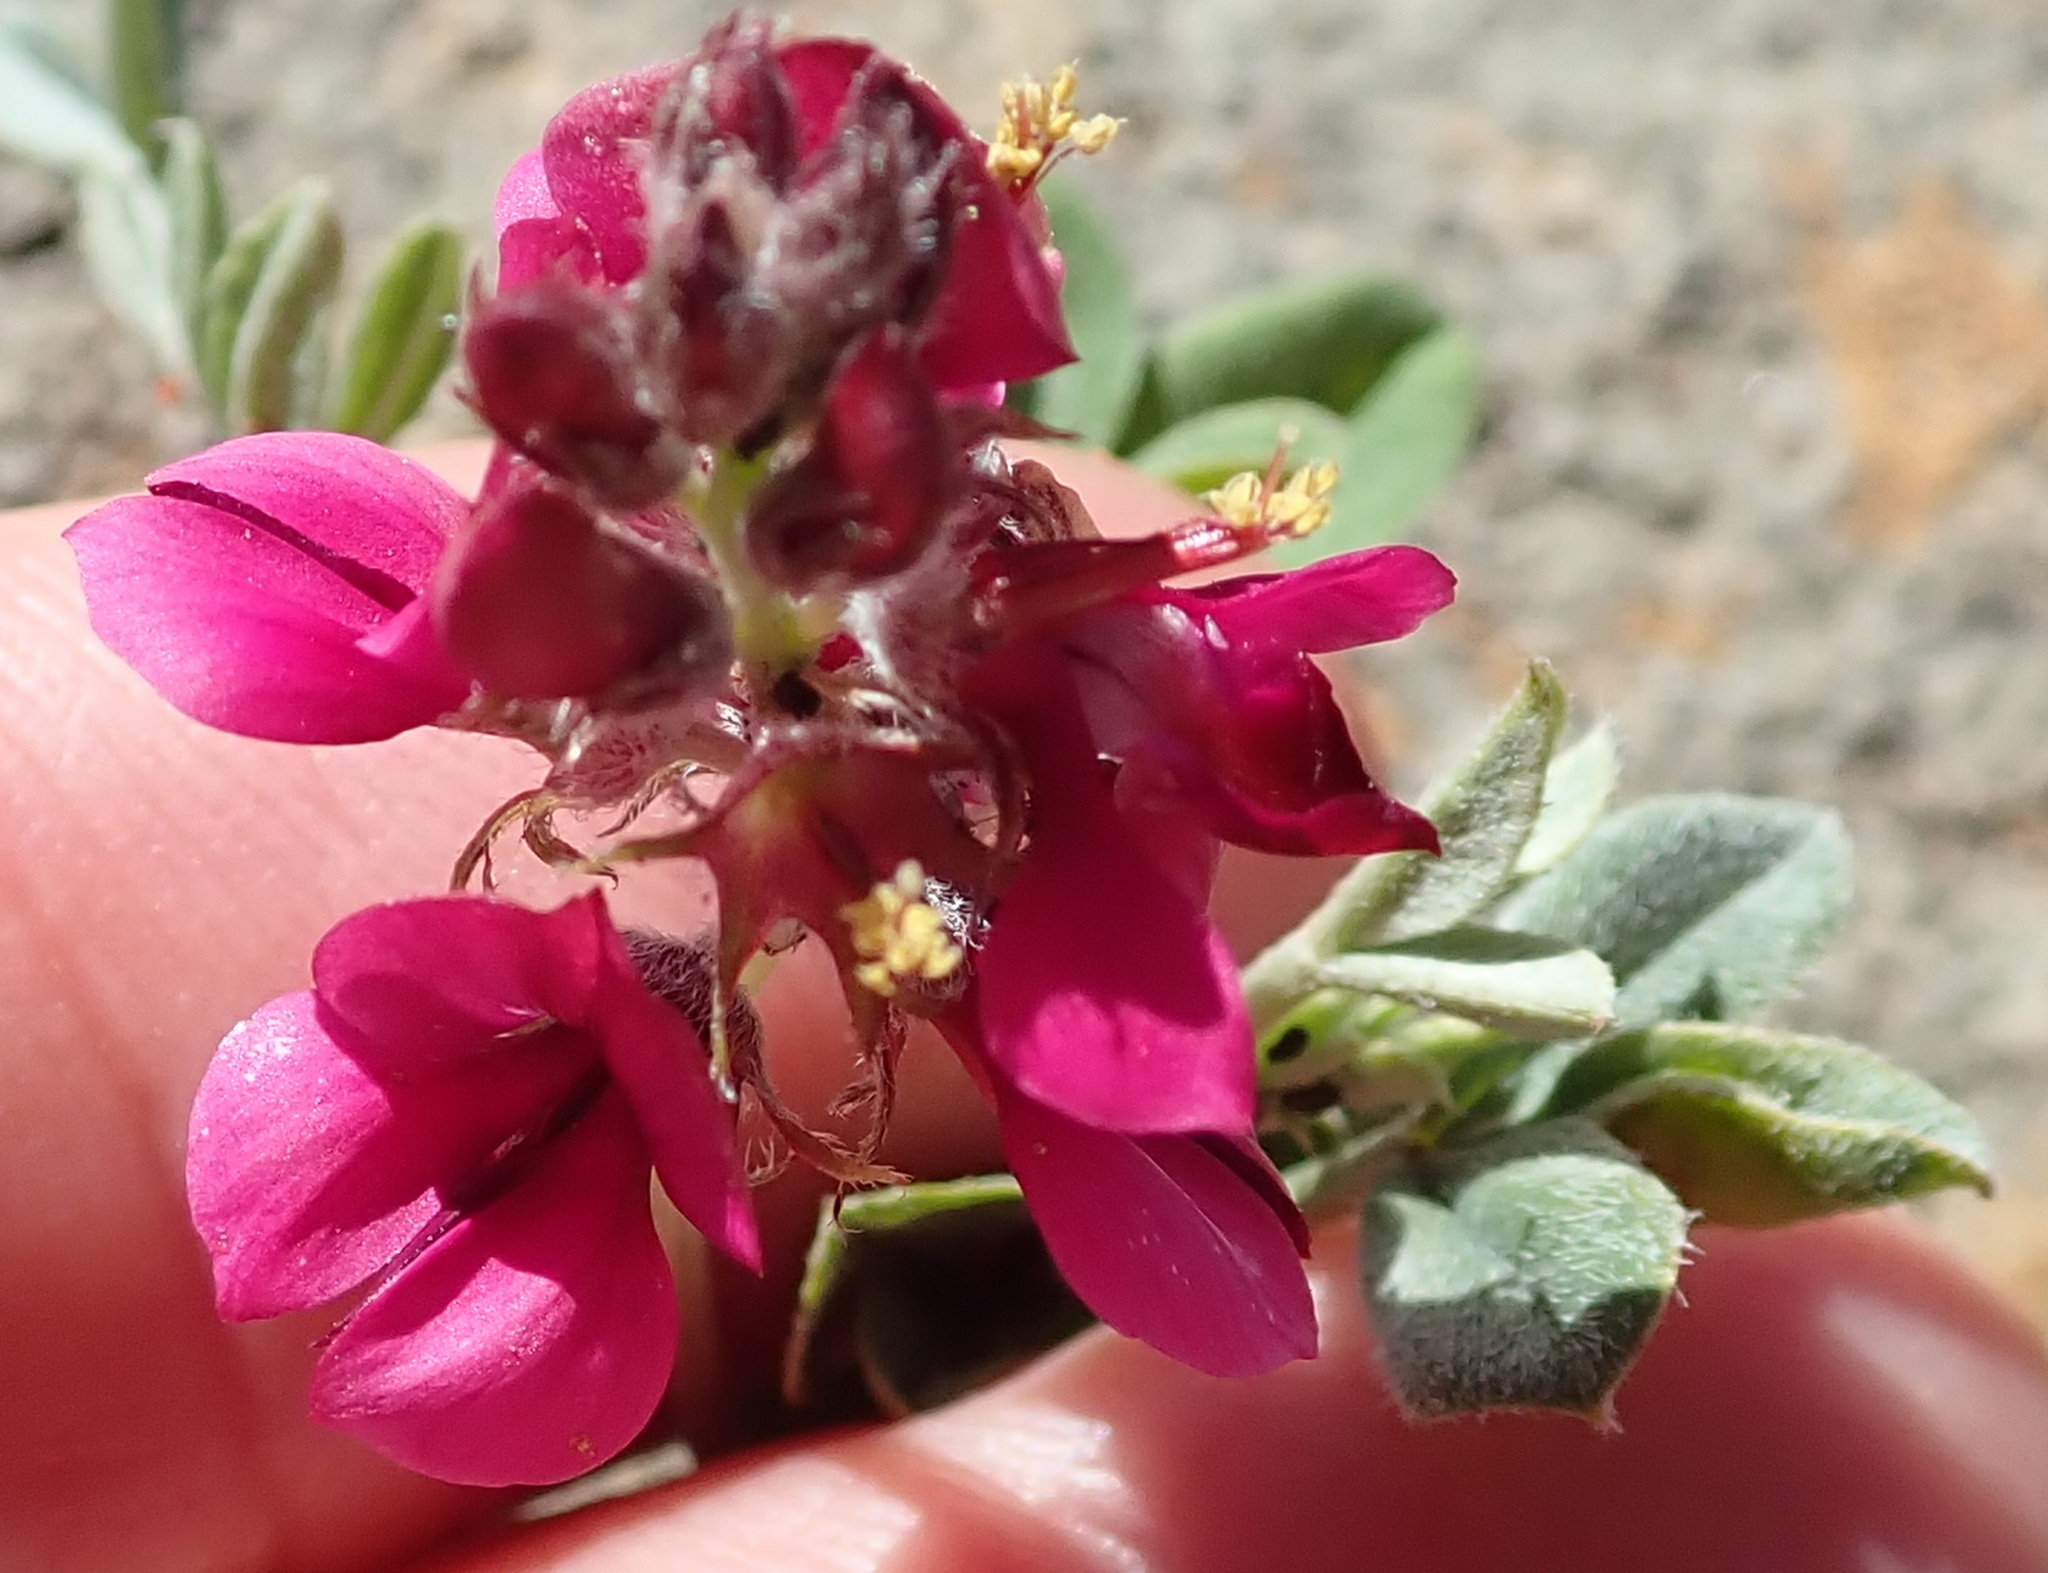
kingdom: Plantae
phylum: Tracheophyta
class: Magnoliopsida
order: Fabales
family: Fabaceae
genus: Indigofera
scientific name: Indigofera meyeriana
